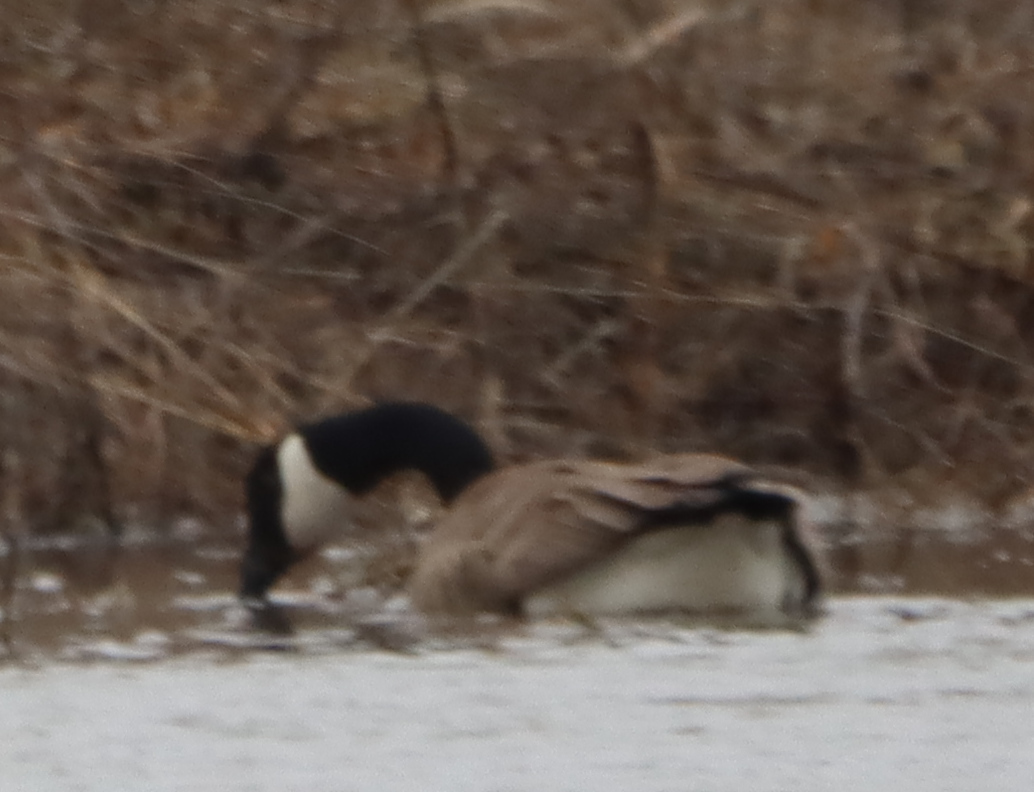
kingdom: Animalia
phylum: Chordata
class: Aves
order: Anseriformes
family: Anatidae
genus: Branta
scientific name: Branta canadensis
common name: Canada goose
